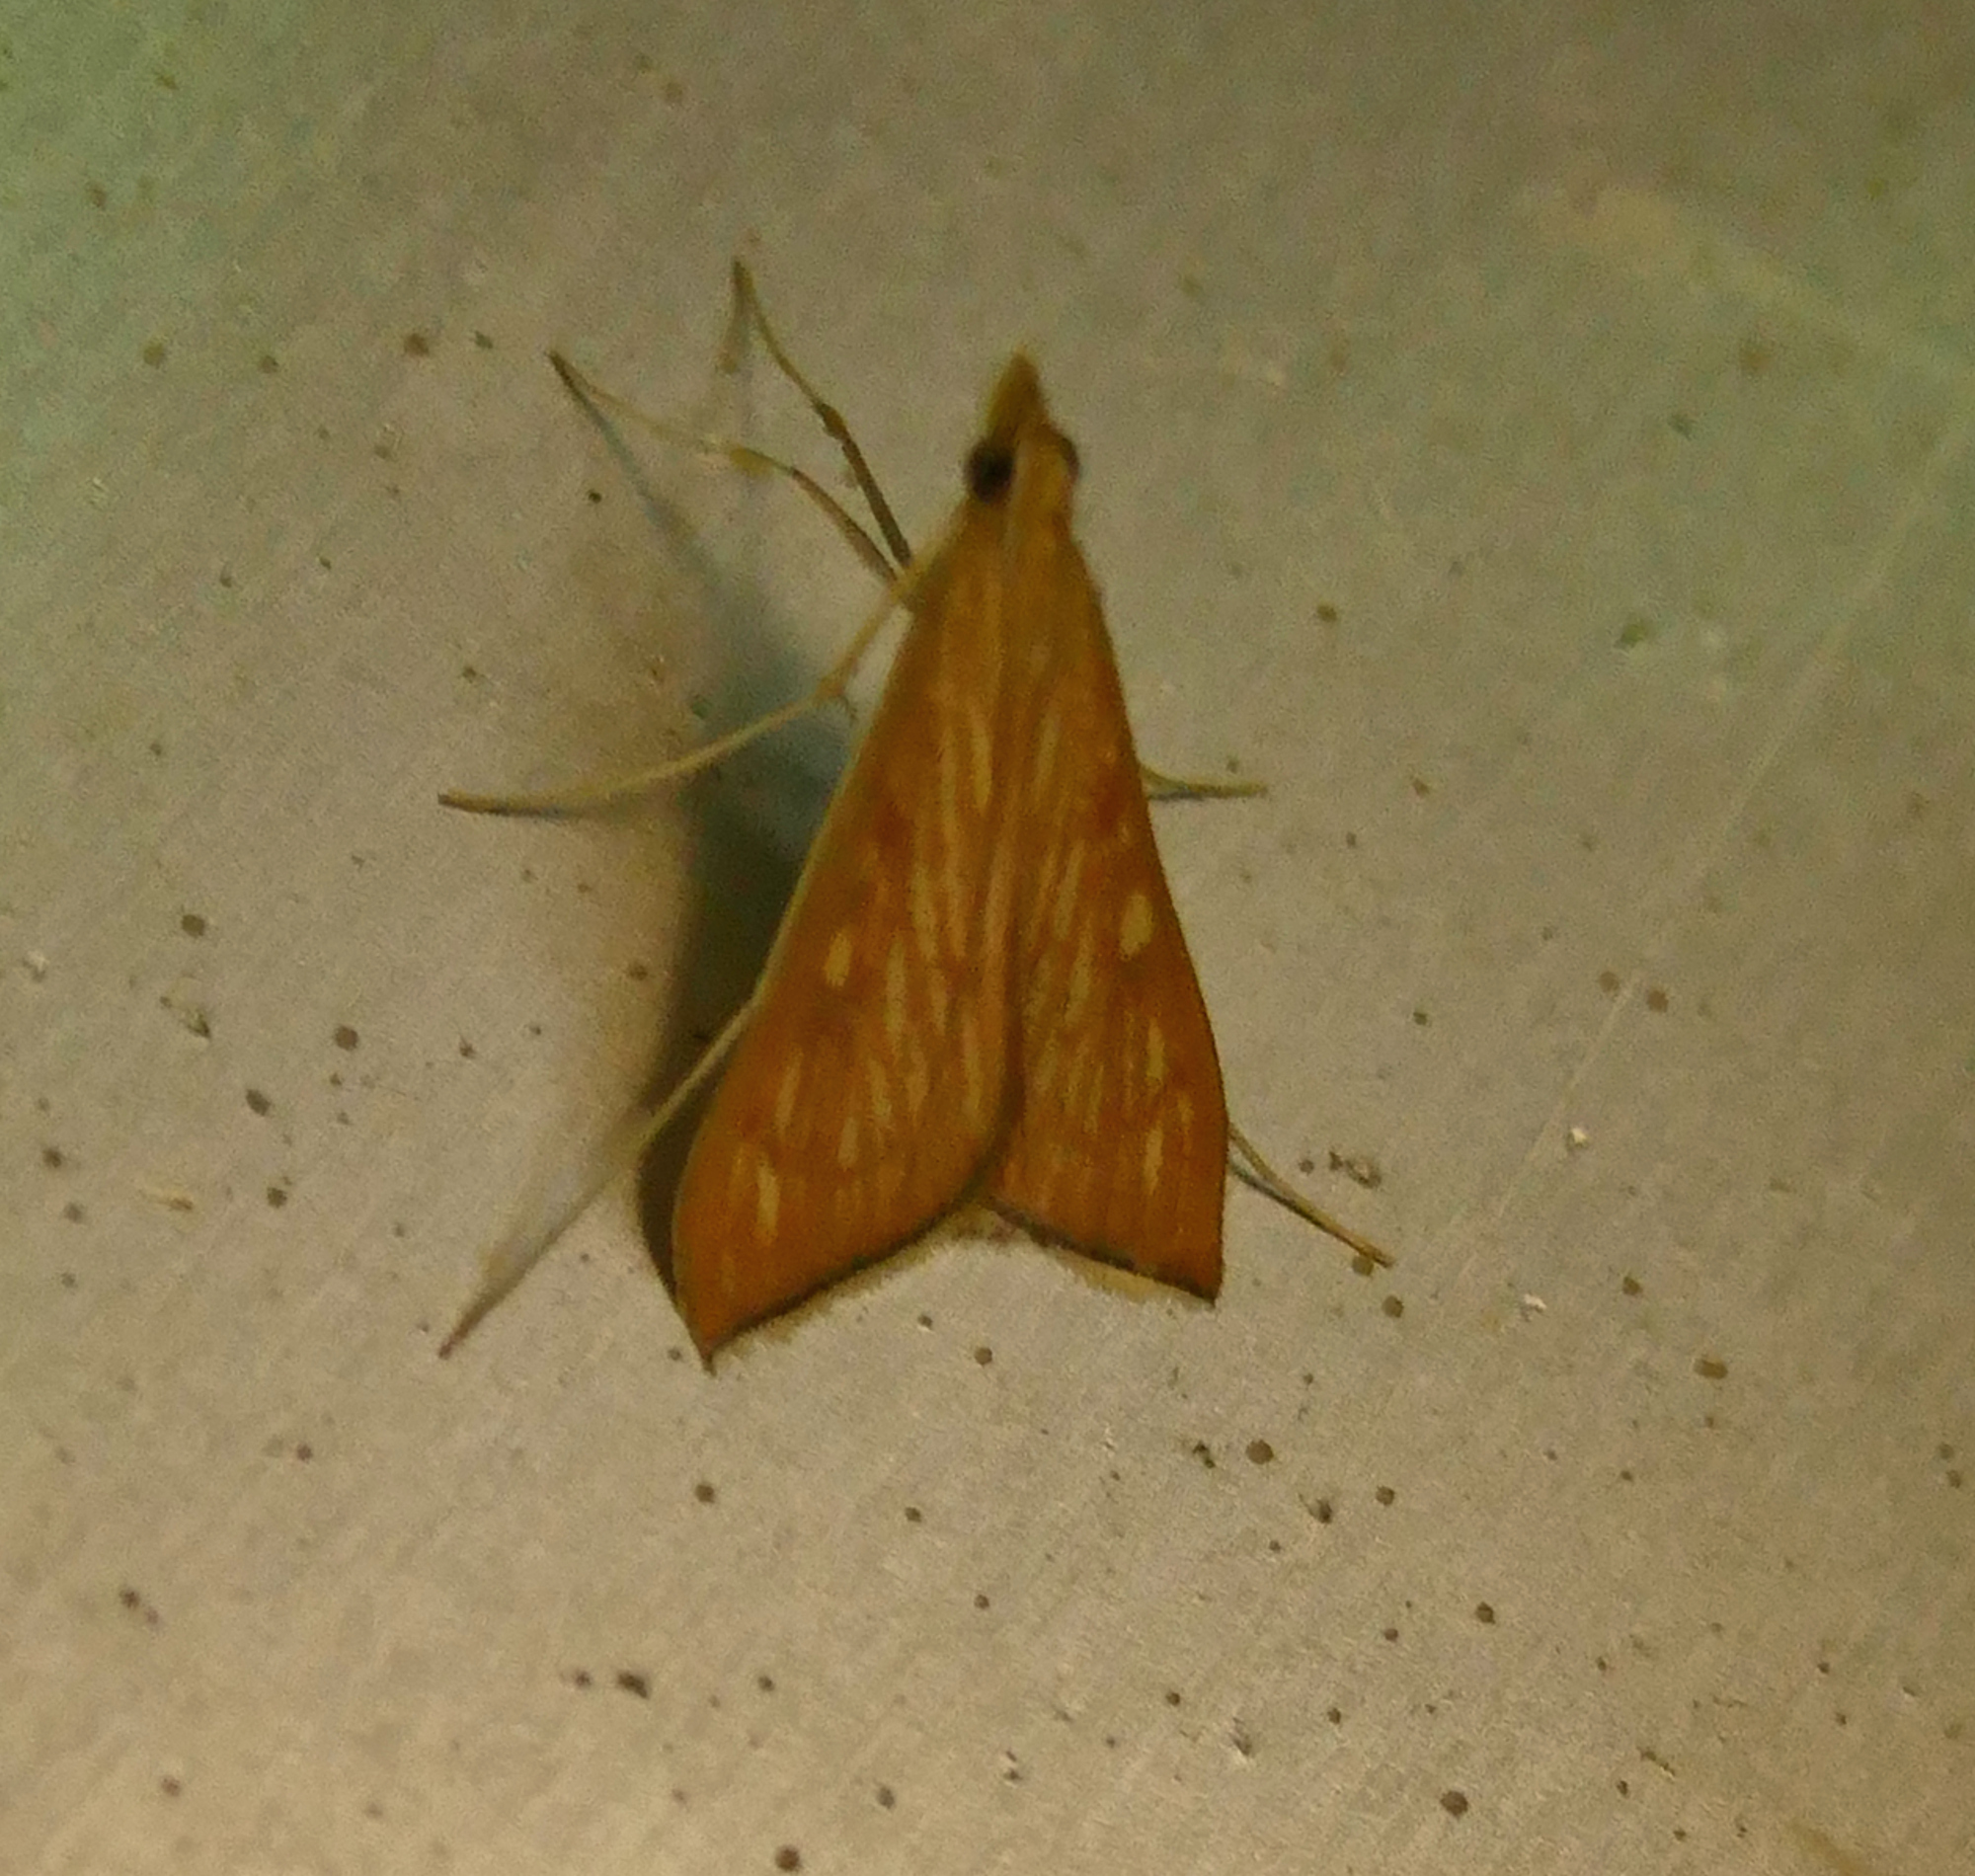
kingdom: Animalia
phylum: Arthropoda
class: Insecta
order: Lepidoptera
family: Crambidae
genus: Antigastra
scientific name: Antigastra catalaunalis
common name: Spanish dot
